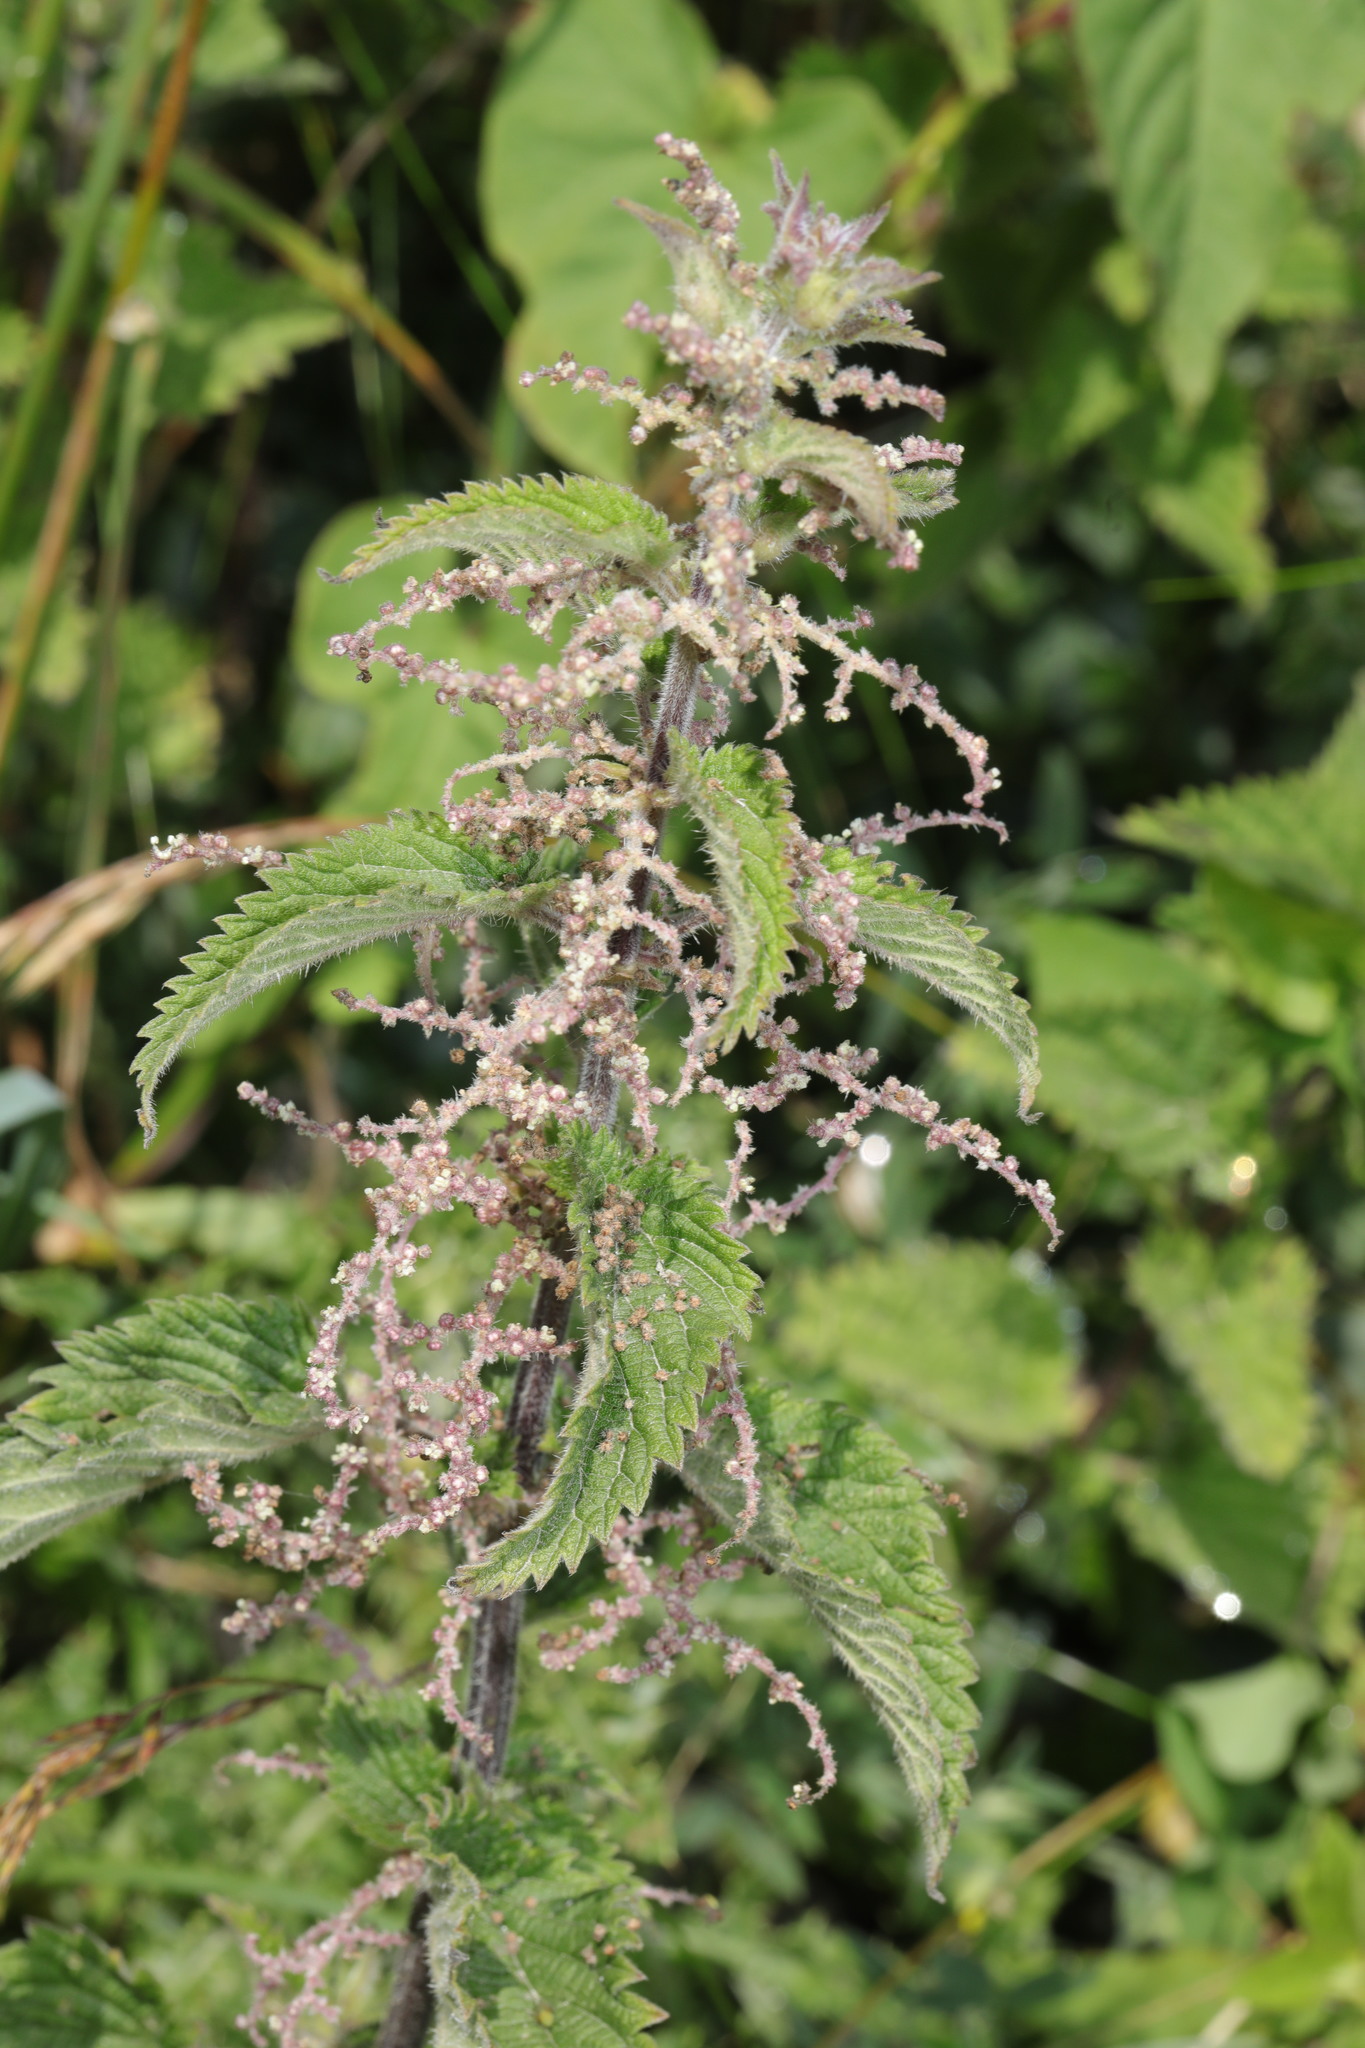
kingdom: Plantae
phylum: Tracheophyta
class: Magnoliopsida
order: Rosales
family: Urticaceae
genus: Urtica
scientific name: Urtica dioica
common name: Common nettle
